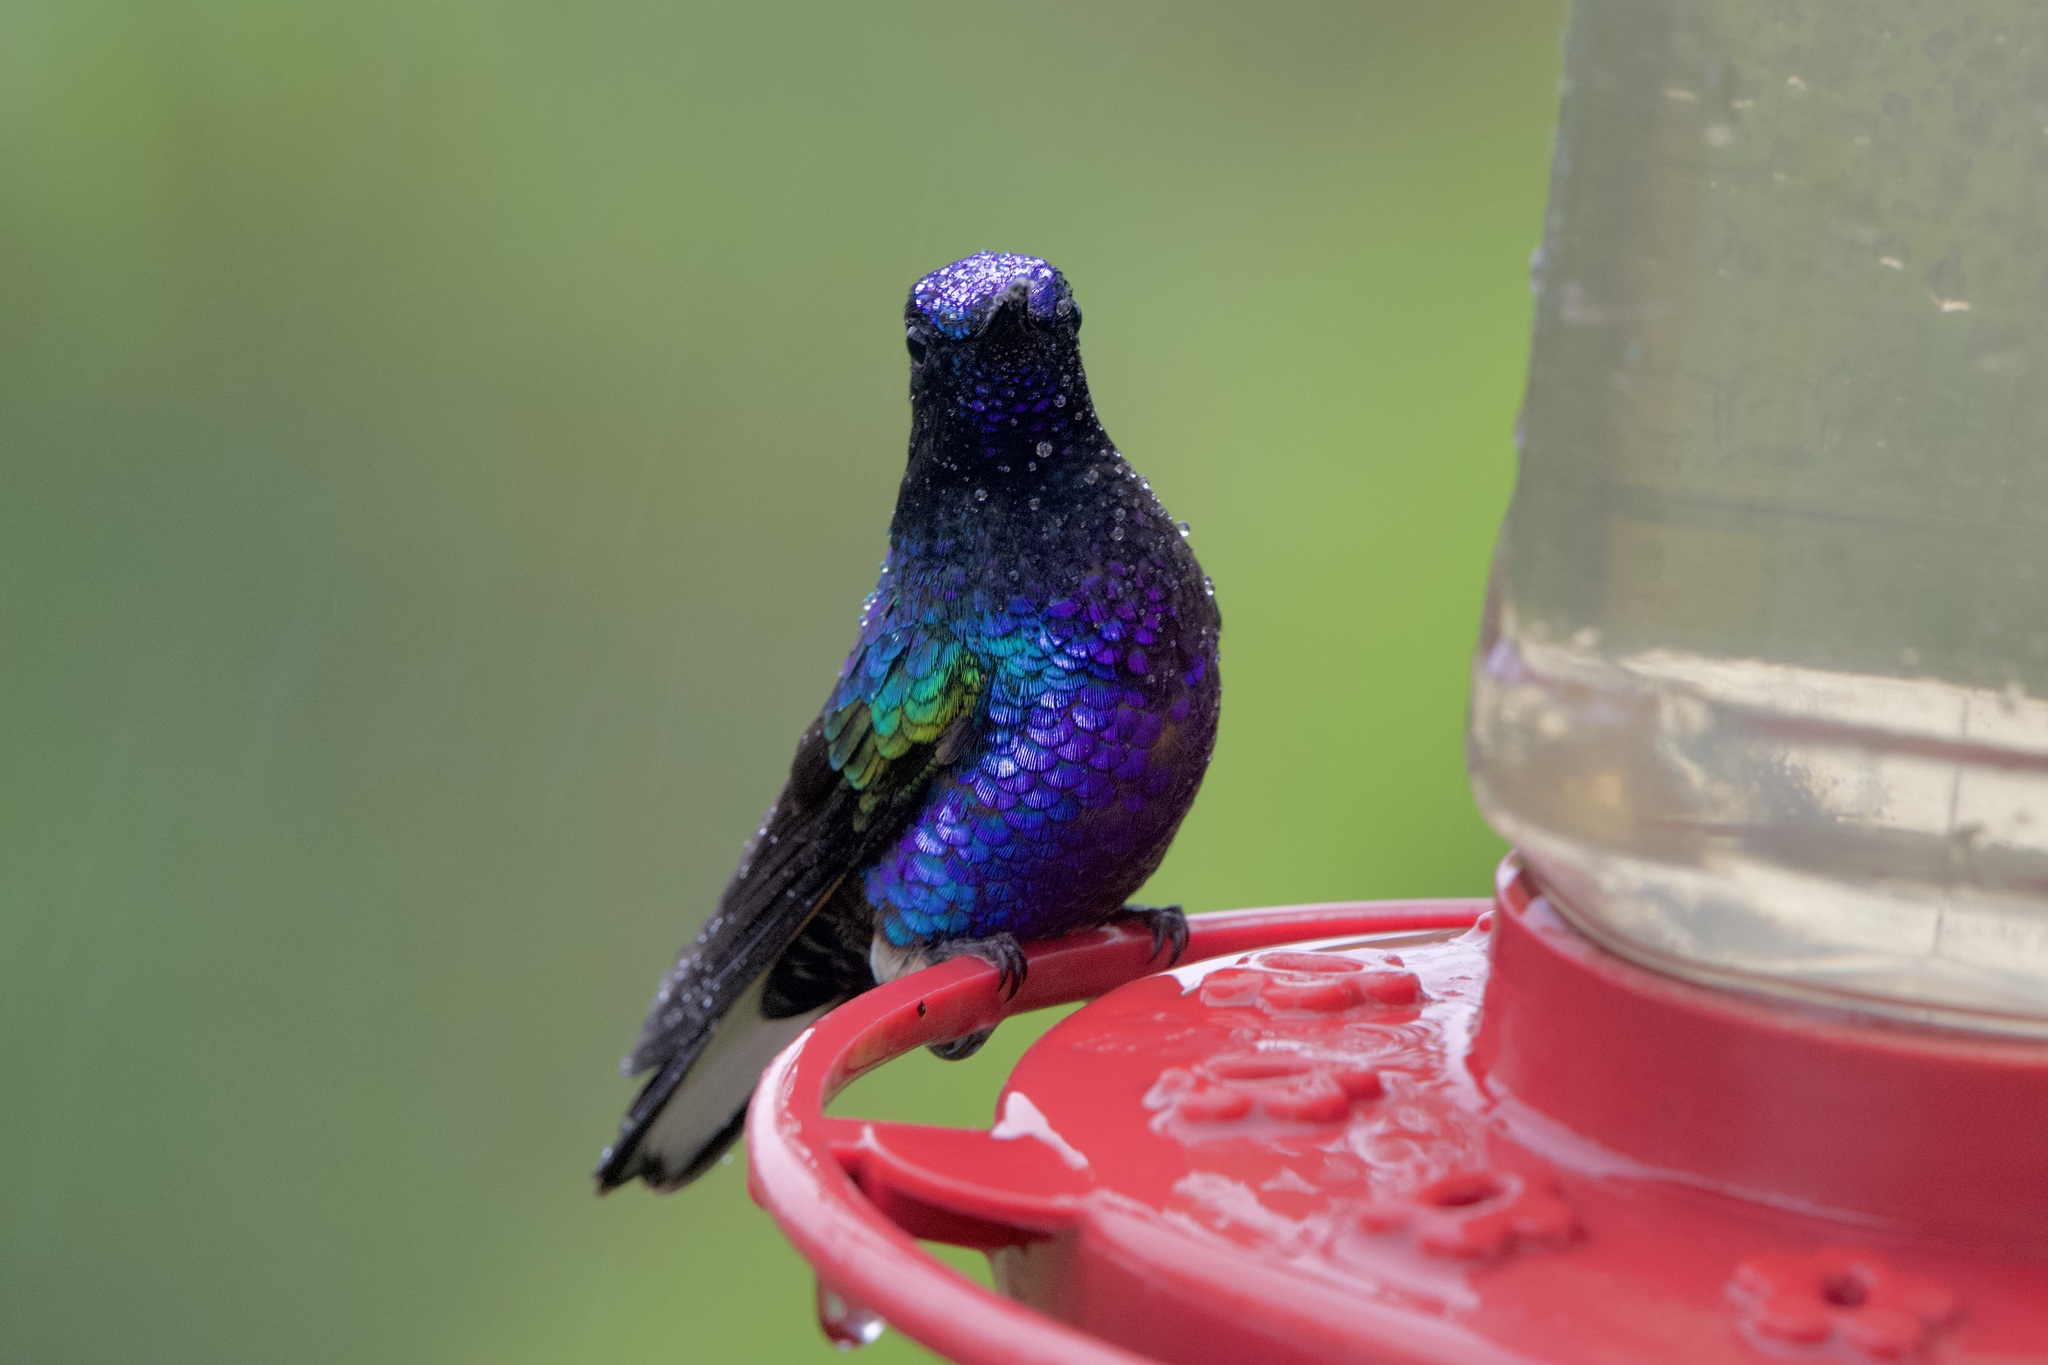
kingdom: Animalia
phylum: Chordata
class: Aves
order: Apodiformes
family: Trochilidae
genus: Boissonneaua
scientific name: Boissonneaua jardini
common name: Velvet-purple coronet
